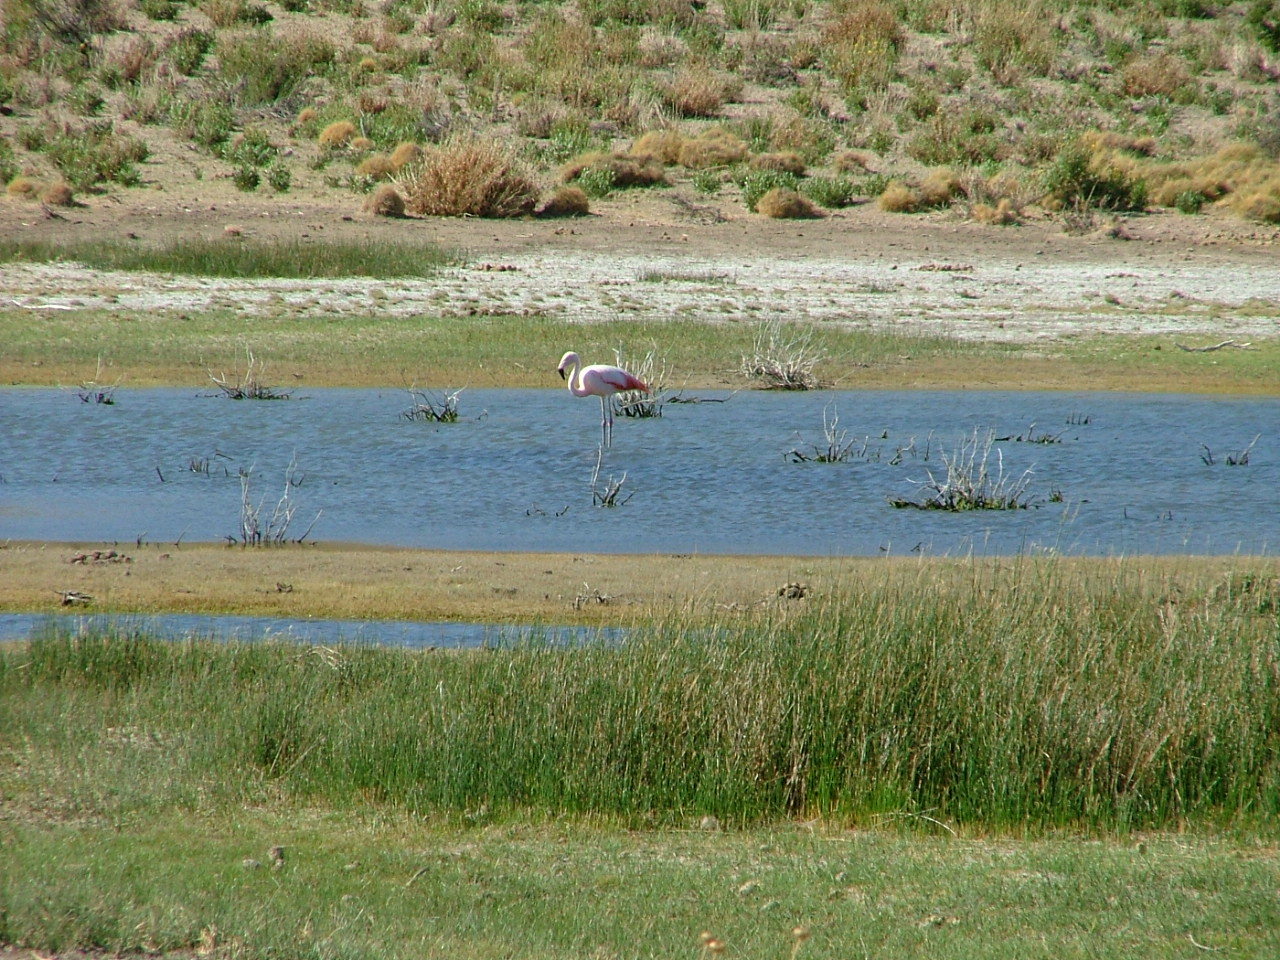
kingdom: Animalia
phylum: Chordata
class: Aves
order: Phoenicopteriformes
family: Phoenicopteridae
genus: Phoenicopterus
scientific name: Phoenicopterus chilensis
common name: Chilean flamingo
